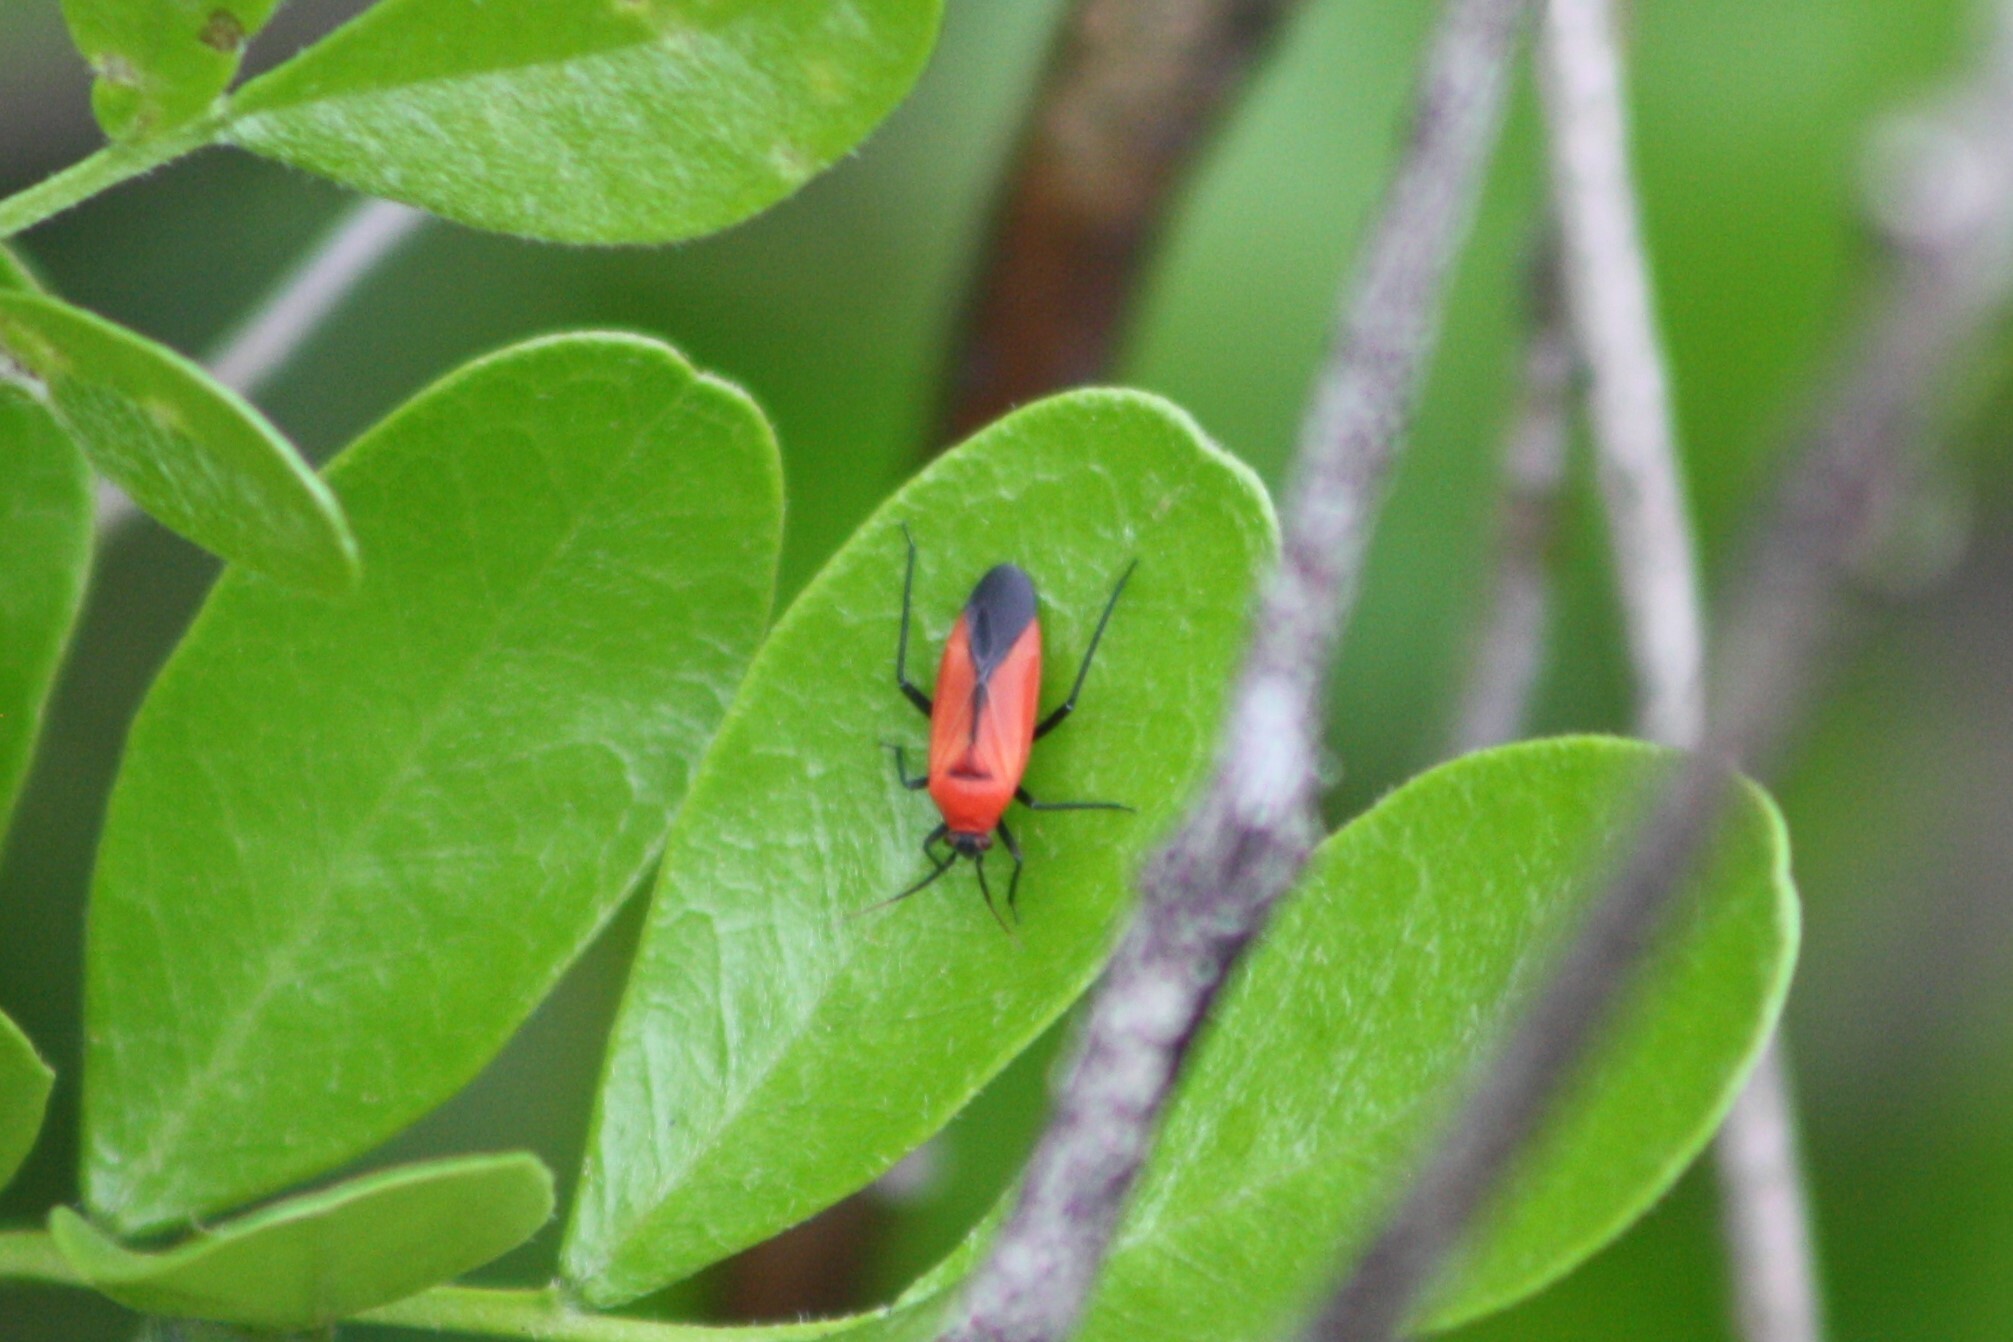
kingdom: Animalia
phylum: Arthropoda
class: Insecta
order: Hemiptera
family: Miridae
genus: Lopidea
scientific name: Lopidea major
